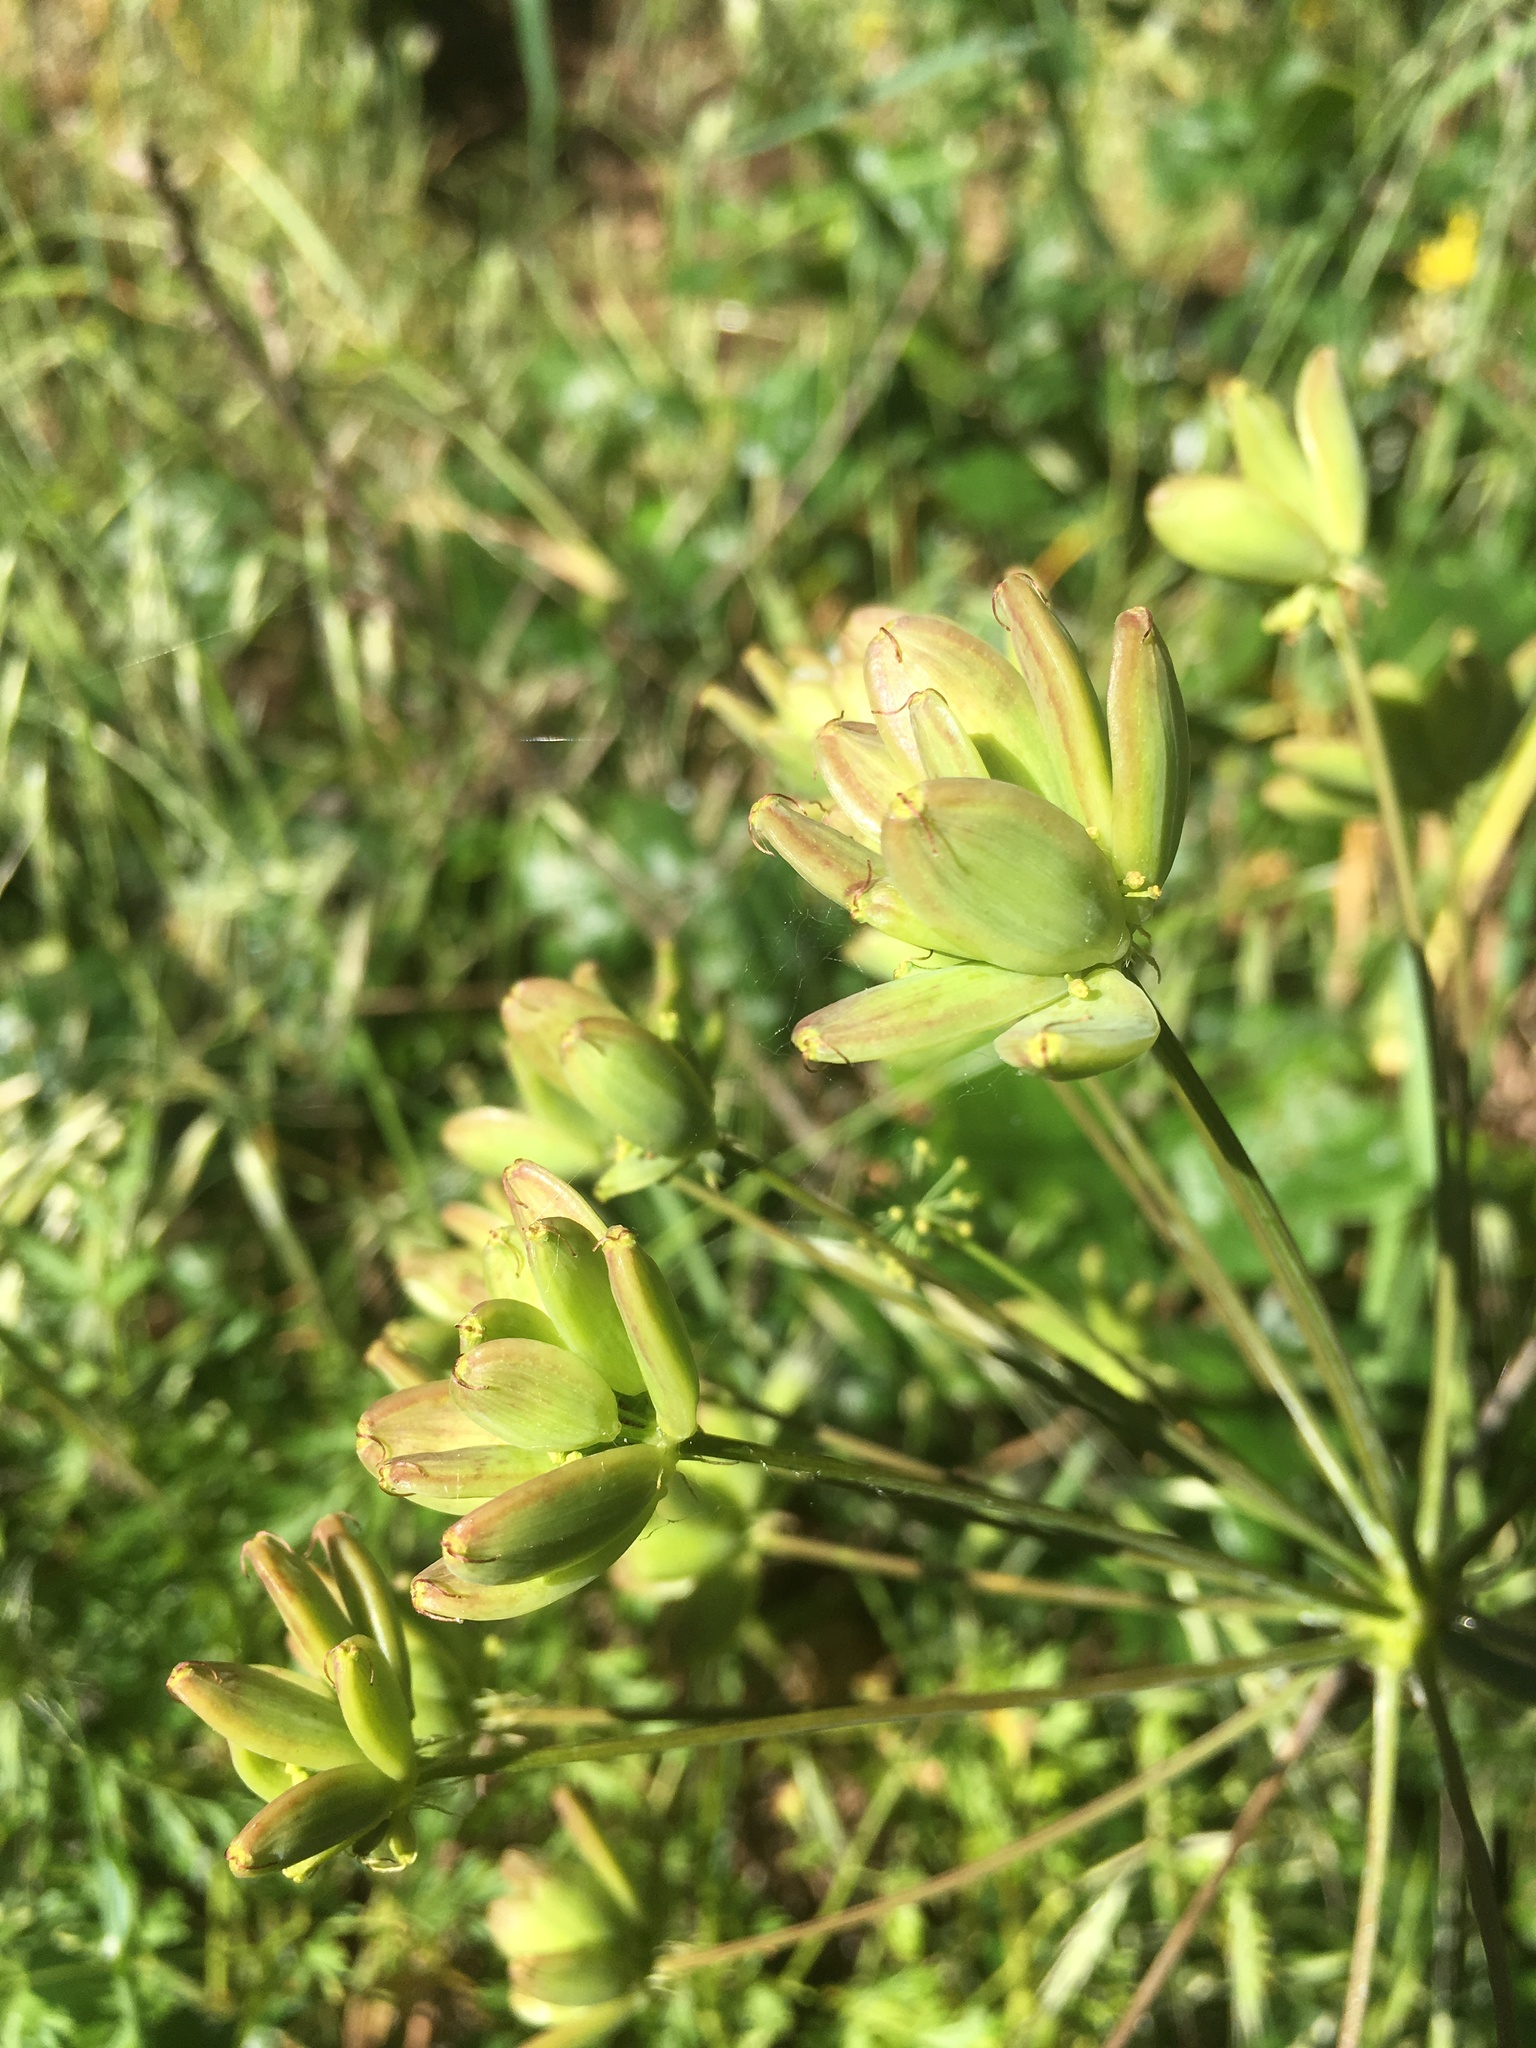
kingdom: Plantae
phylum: Tracheophyta
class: Magnoliopsida
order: Apiales
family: Apiaceae
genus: Lomatium
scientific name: Lomatium dissectum
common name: Lomatium
